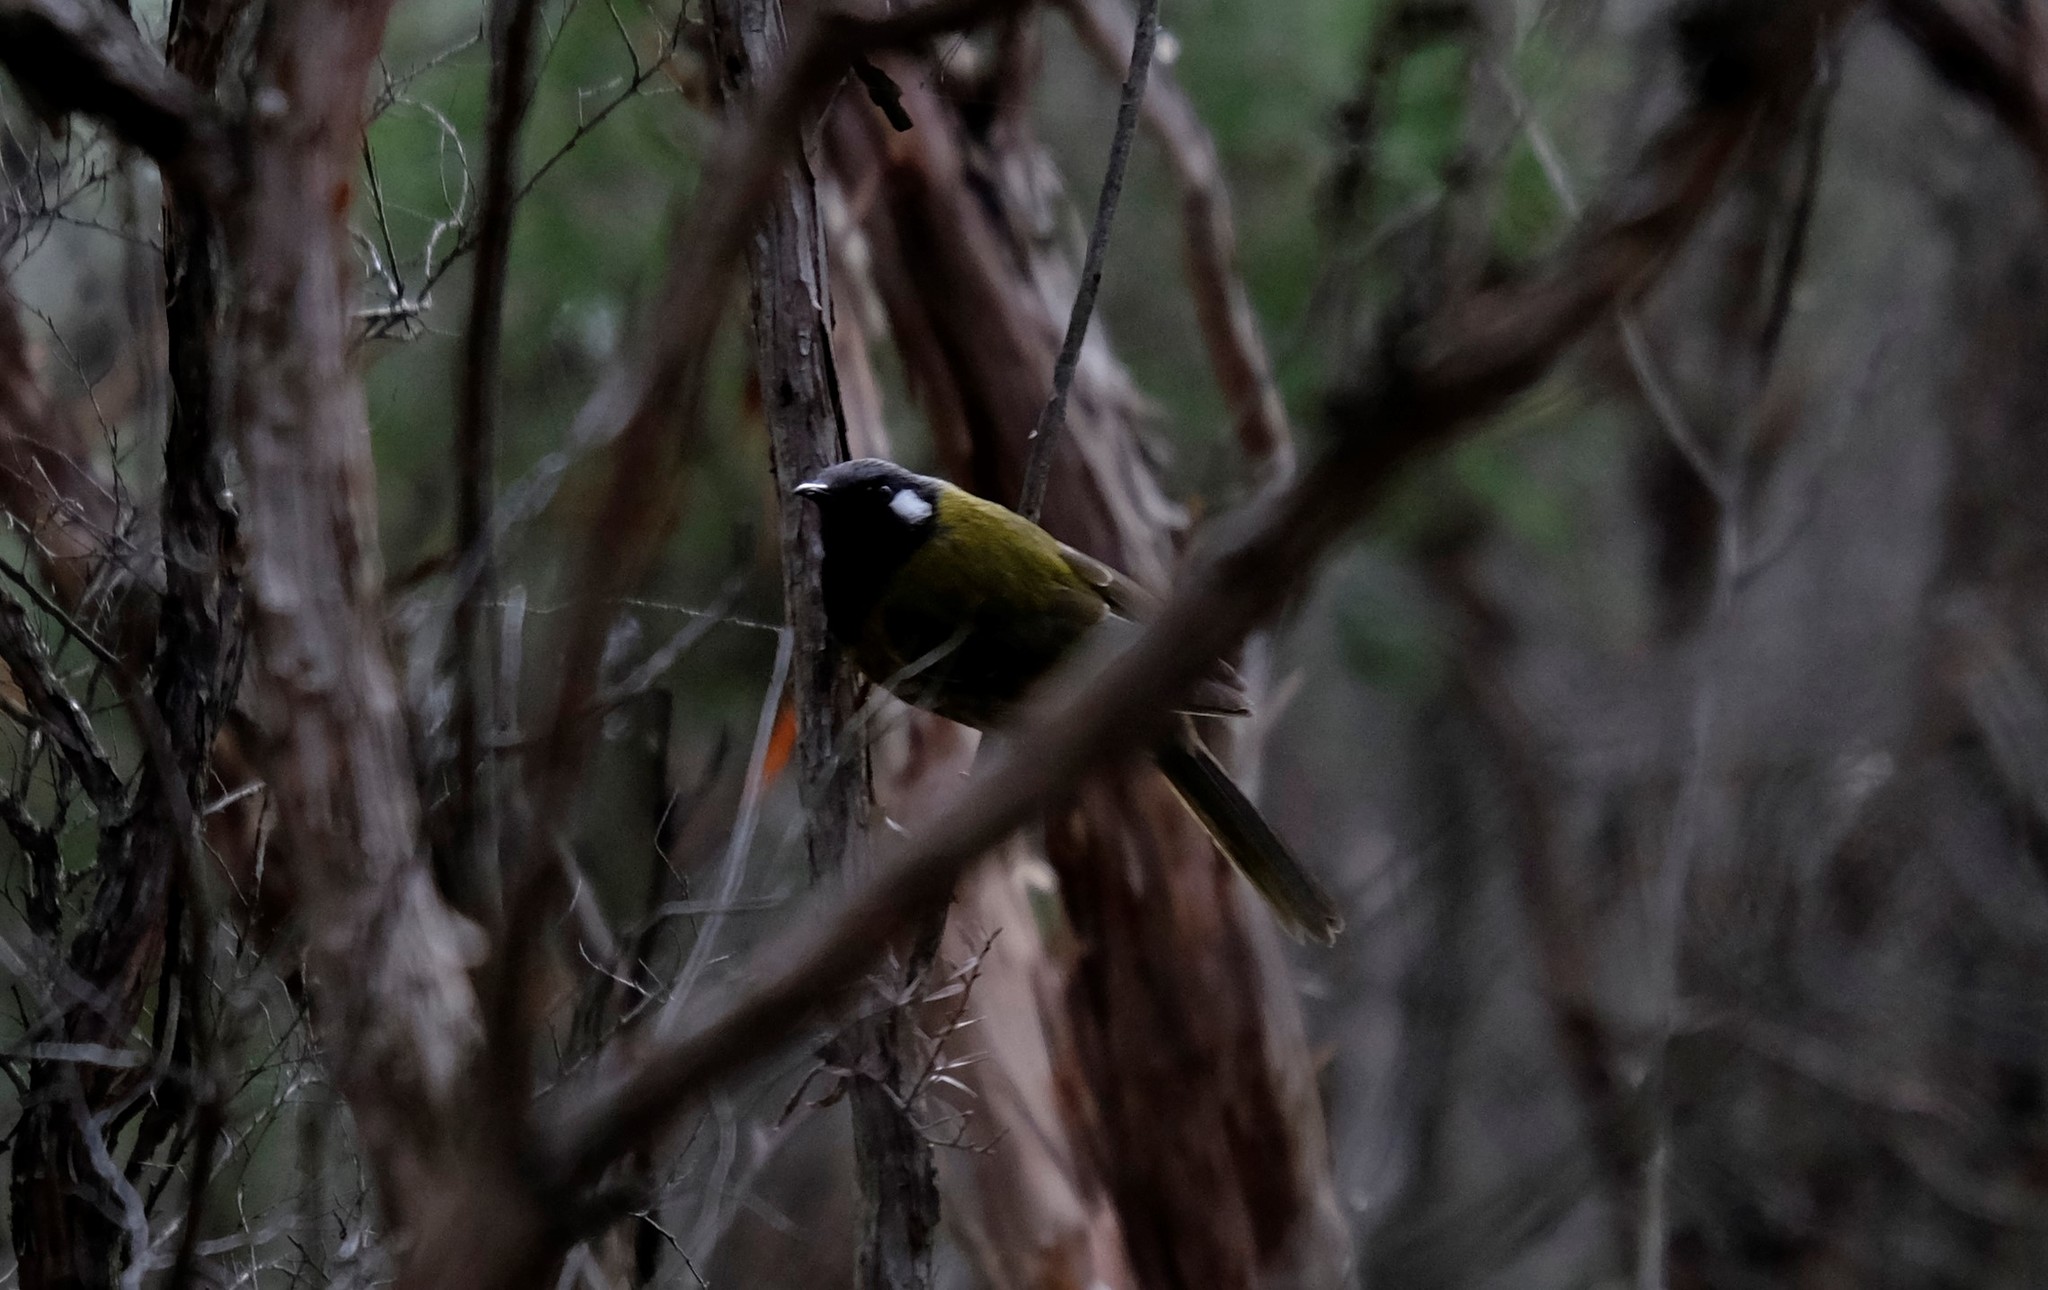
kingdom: Animalia
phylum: Chordata
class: Aves
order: Passeriformes
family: Meliphagidae
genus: Nesoptilotis
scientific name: Nesoptilotis leucotis
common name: White-eared honeyeater
